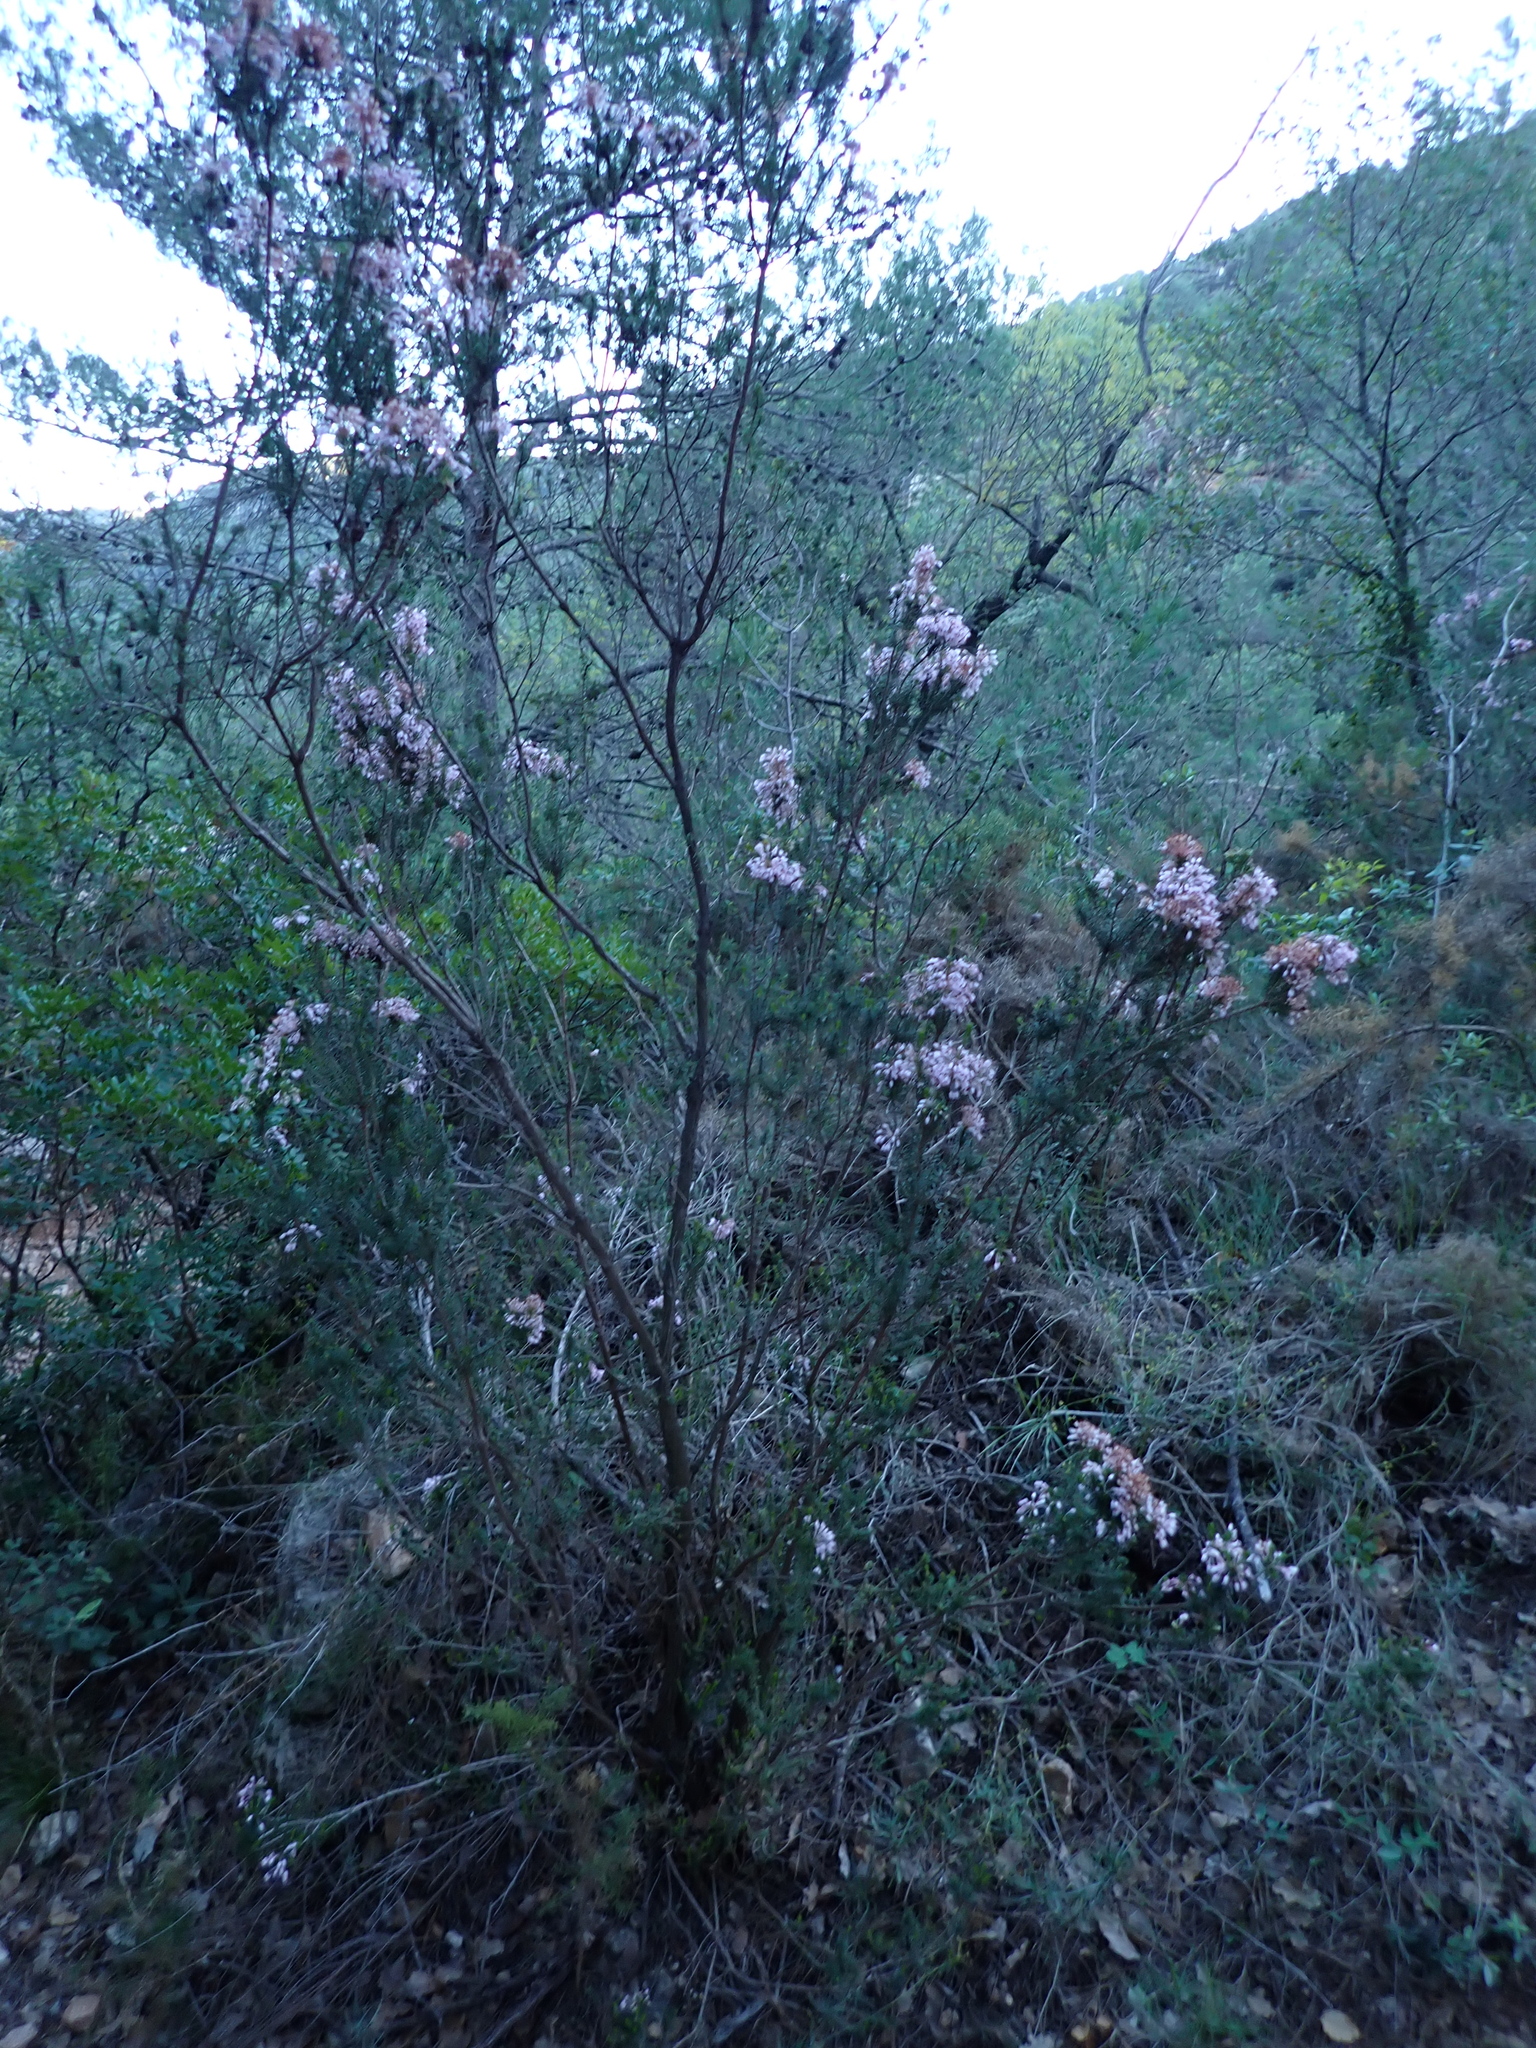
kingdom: Plantae
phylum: Tracheophyta
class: Magnoliopsida
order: Ericales
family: Ericaceae
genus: Erica
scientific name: Erica multiflora
